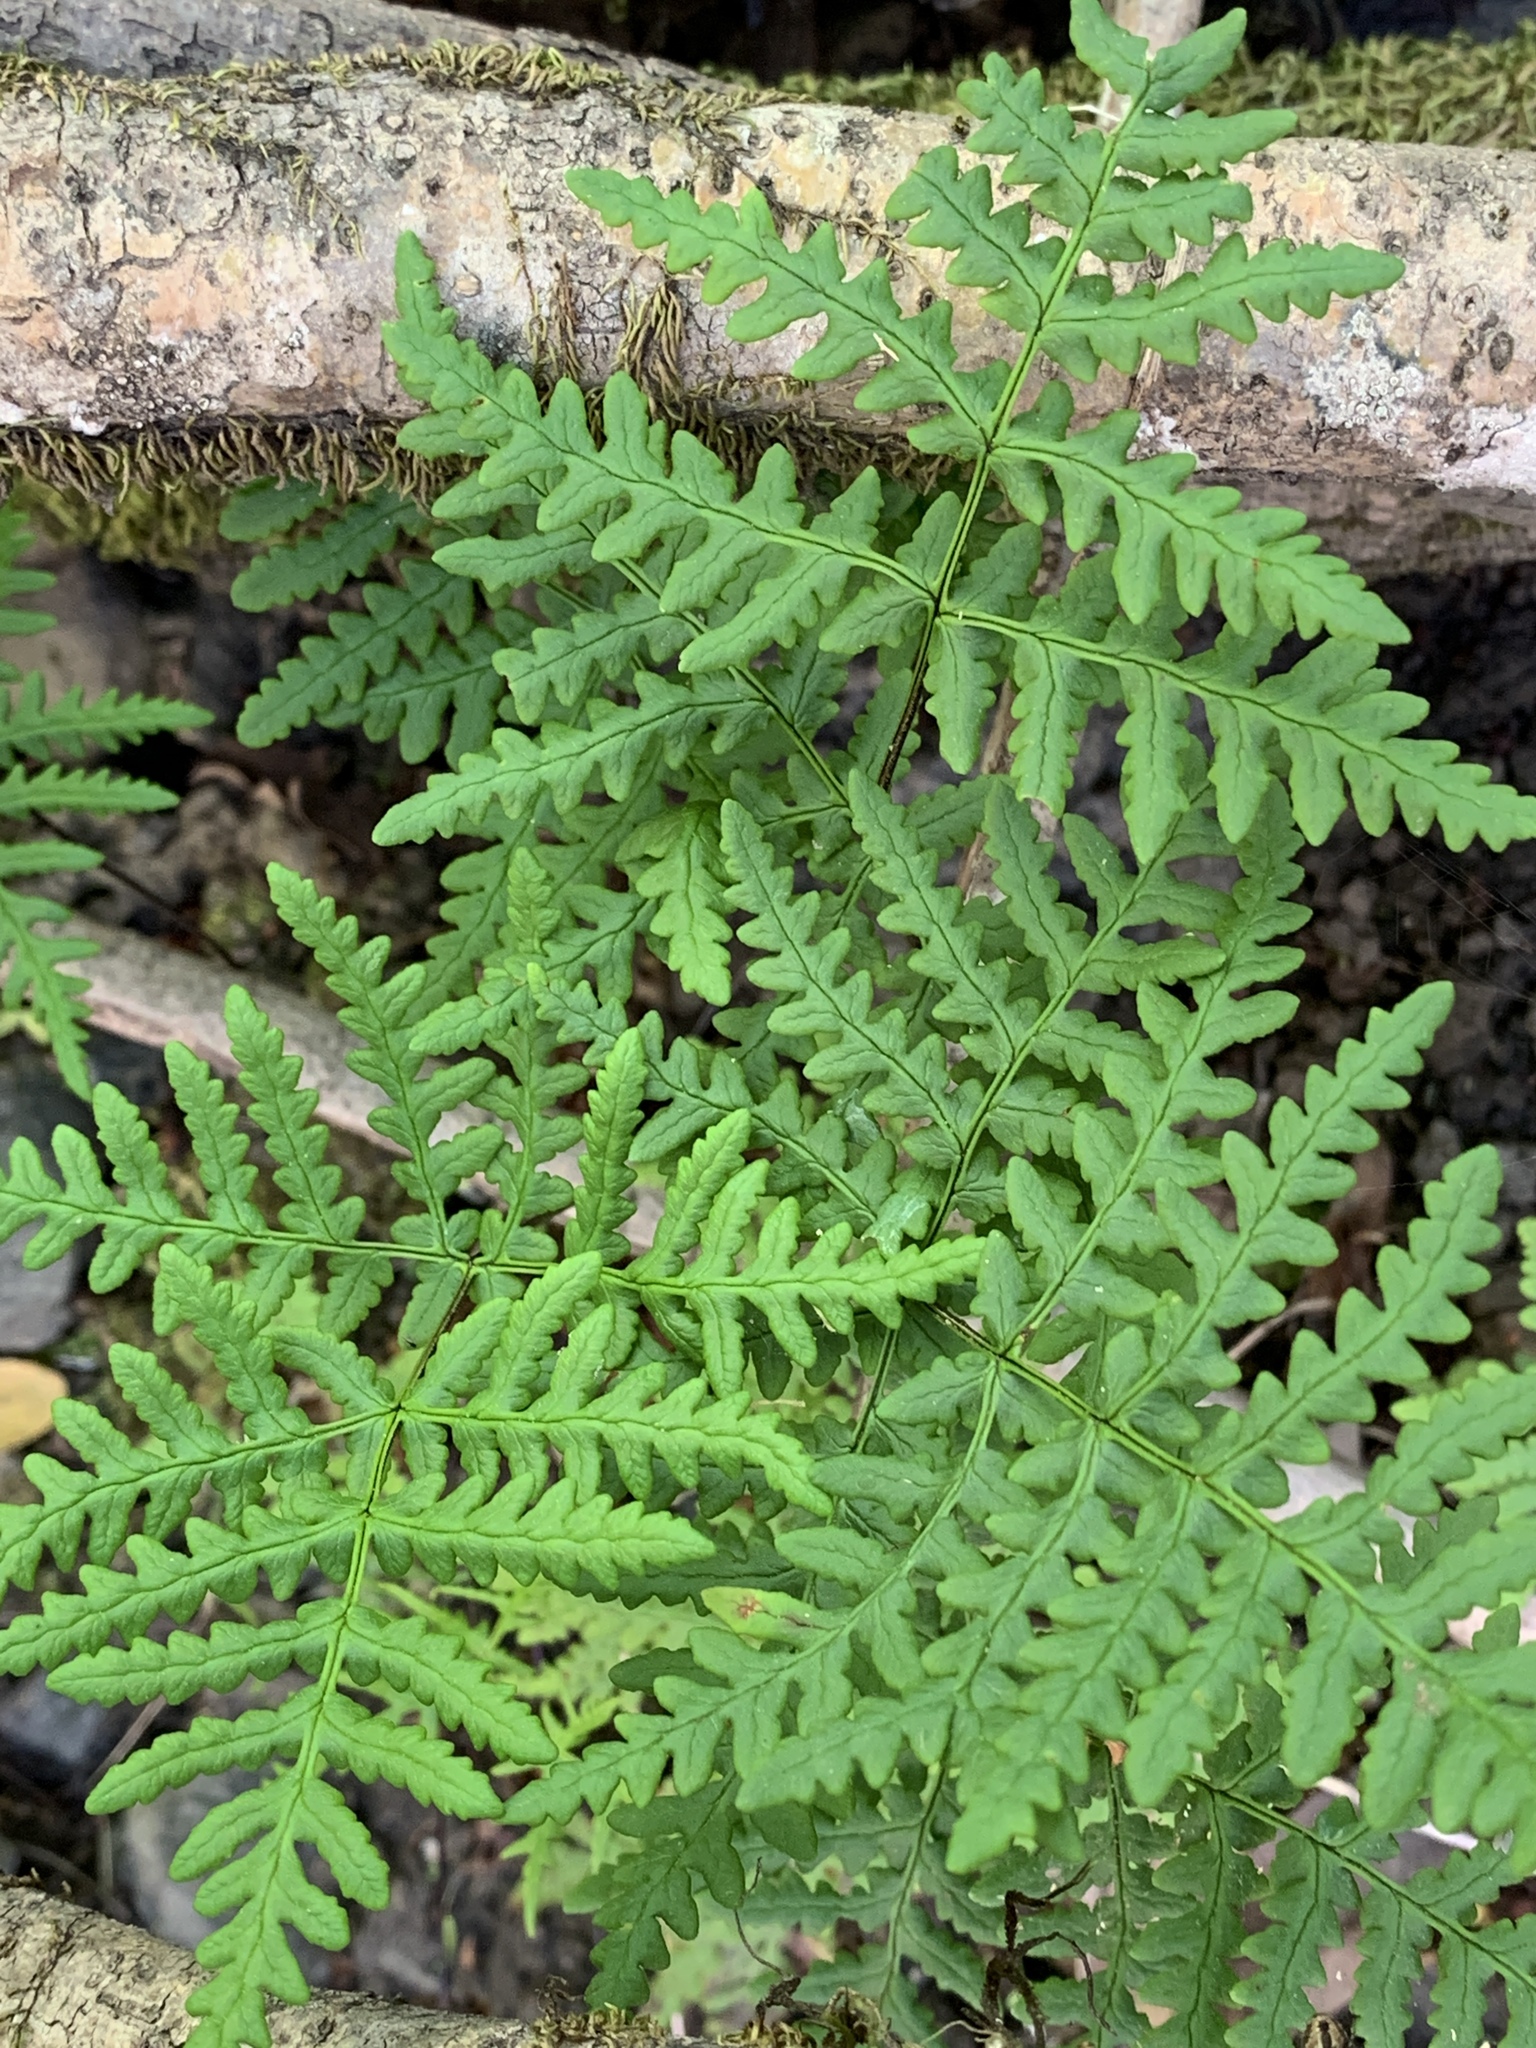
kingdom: Plantae
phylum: Tracheophyta
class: Polypodiopsida
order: Polypodiales
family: Pteridaceae
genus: Pentagramma
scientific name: Pentagramma triangularis
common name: Gold fern
